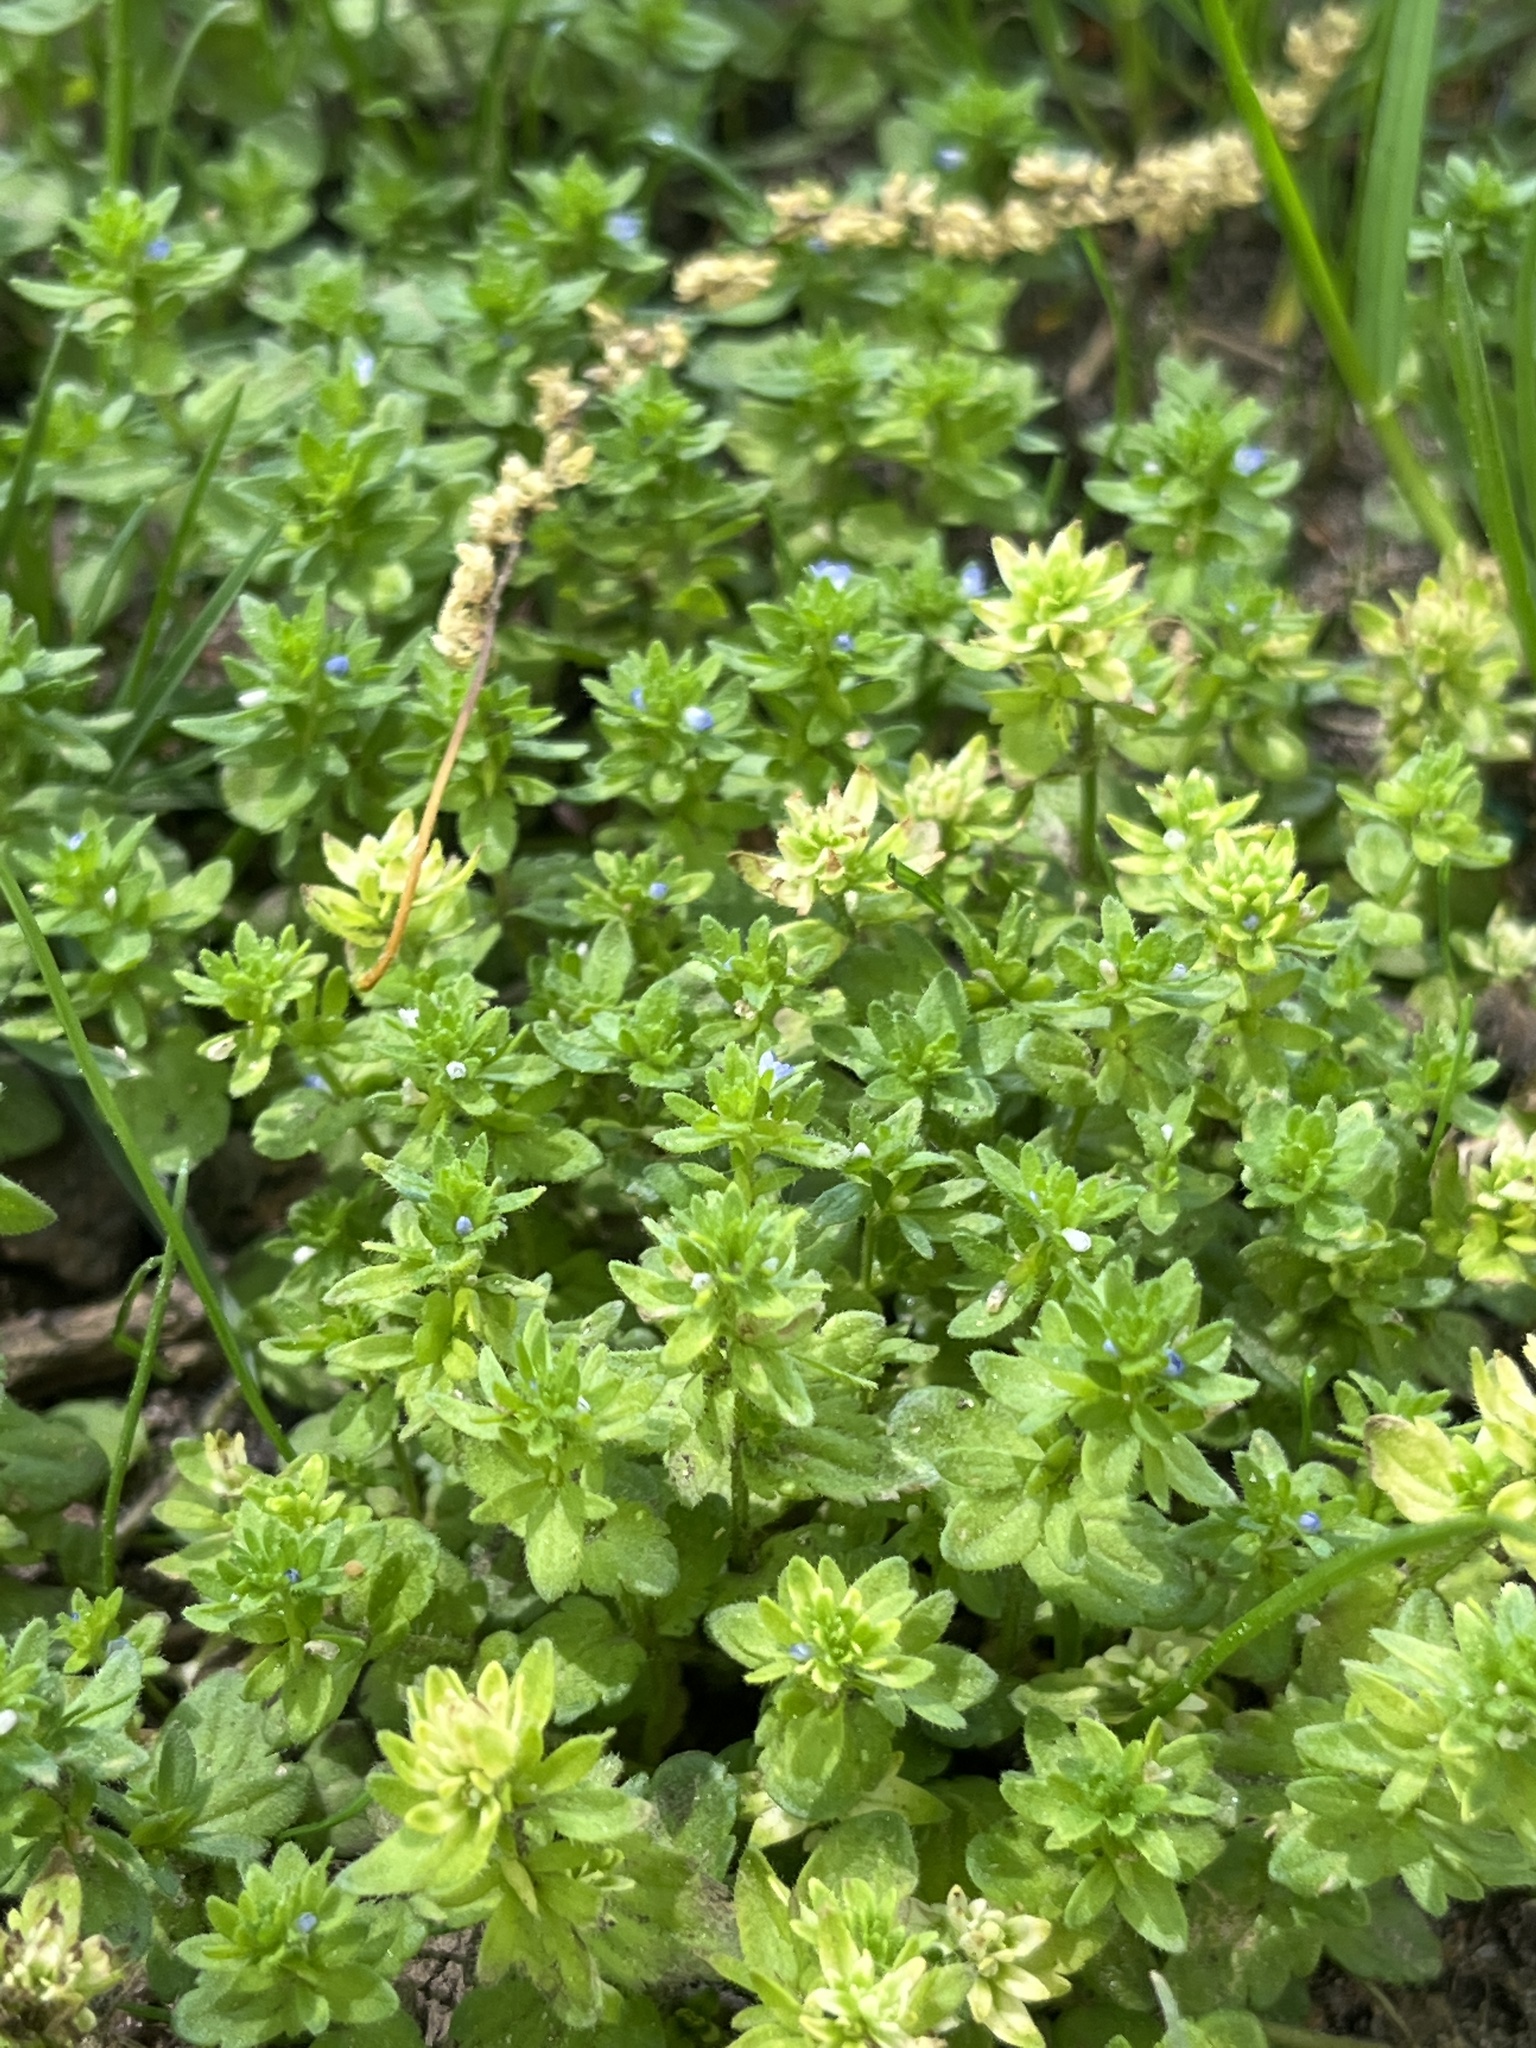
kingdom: Plantae
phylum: Tracheophyta
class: Magnoliopsida
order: Lamiales
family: Plantaginaceae
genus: Veronica
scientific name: Veronica arvensis
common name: Corn speedwell
